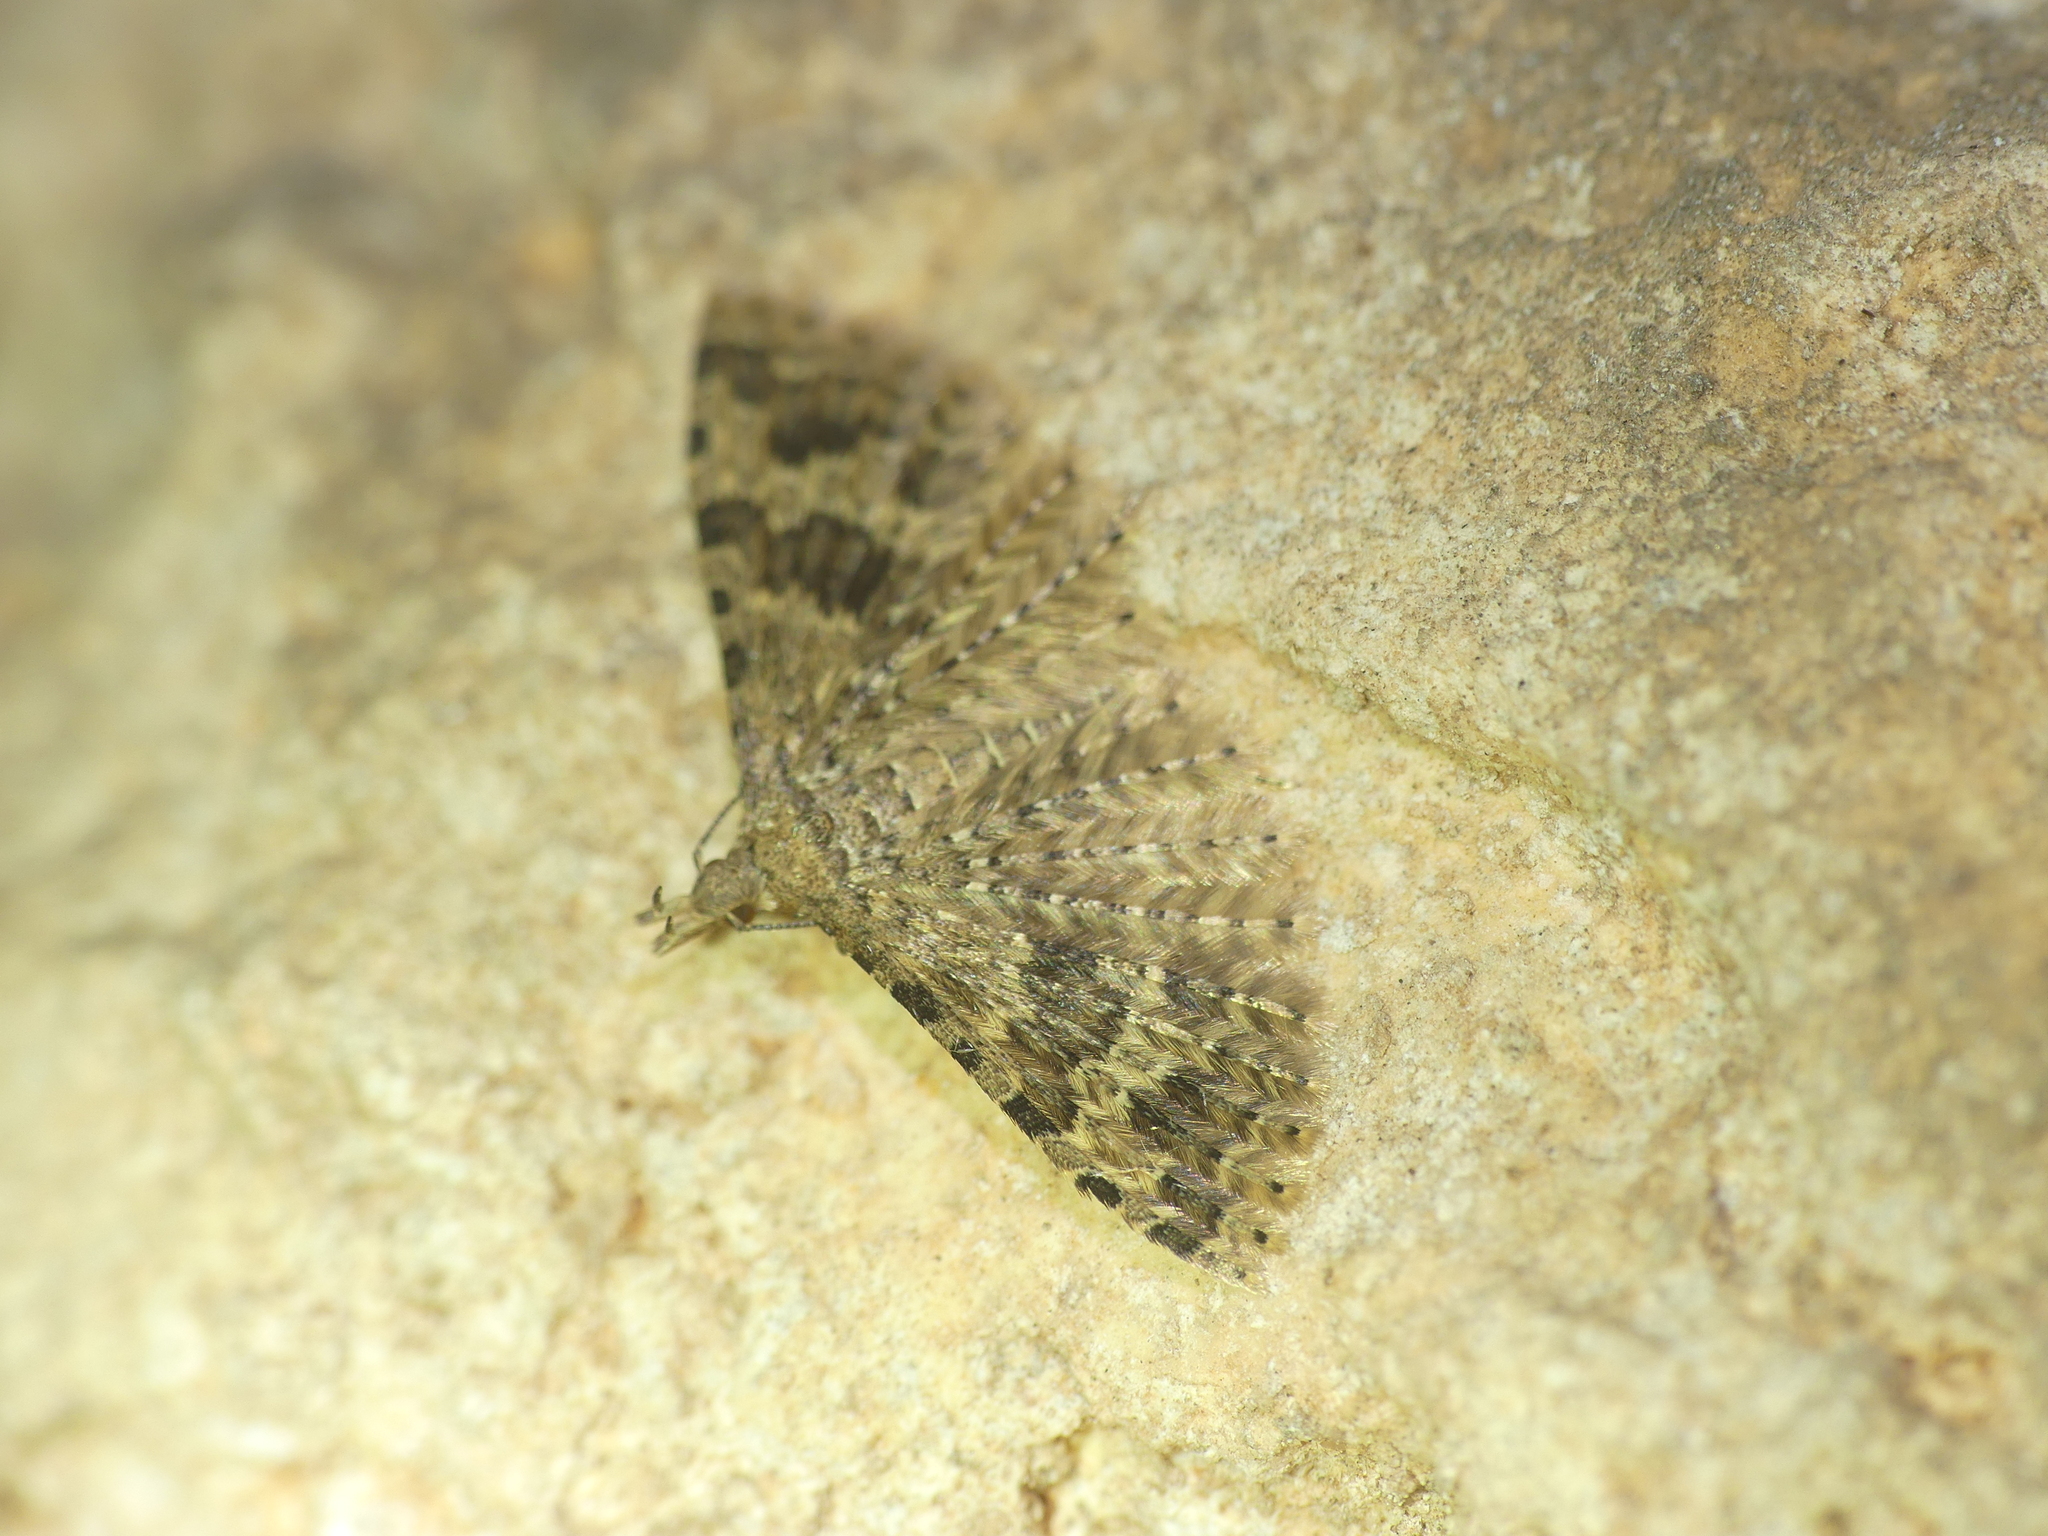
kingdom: Animalia
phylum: Arthropoda
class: Insecta
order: Lepidoptera
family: Alucitidae
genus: Alucita
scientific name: Alucita hexadactyla
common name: Twenty-plume moth
